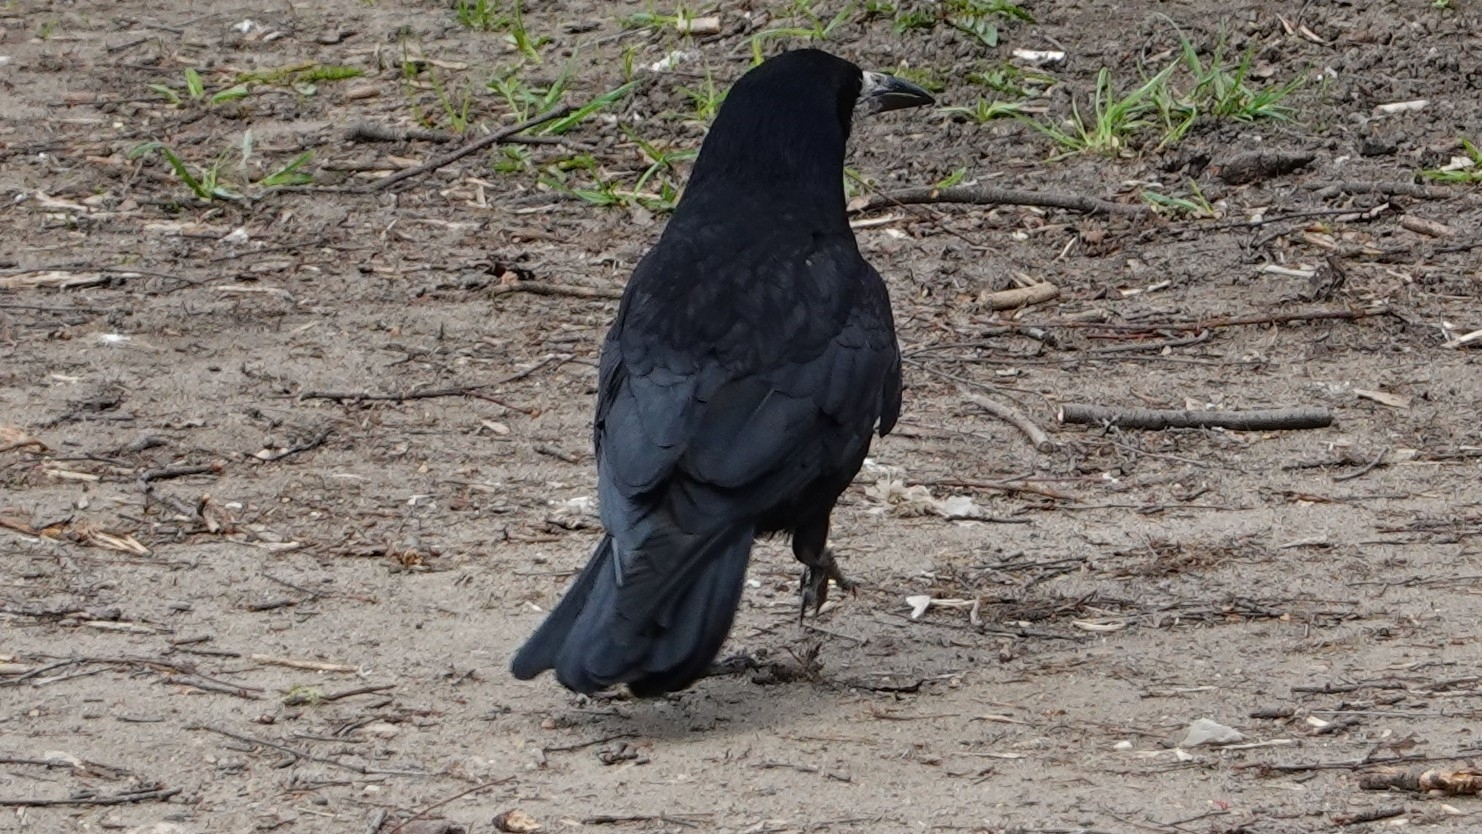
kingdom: Animalia
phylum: Chordata
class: Aves
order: Passeriformes
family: Corvidae
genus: Corvus
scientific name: Corvus frugilegus
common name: Rook
